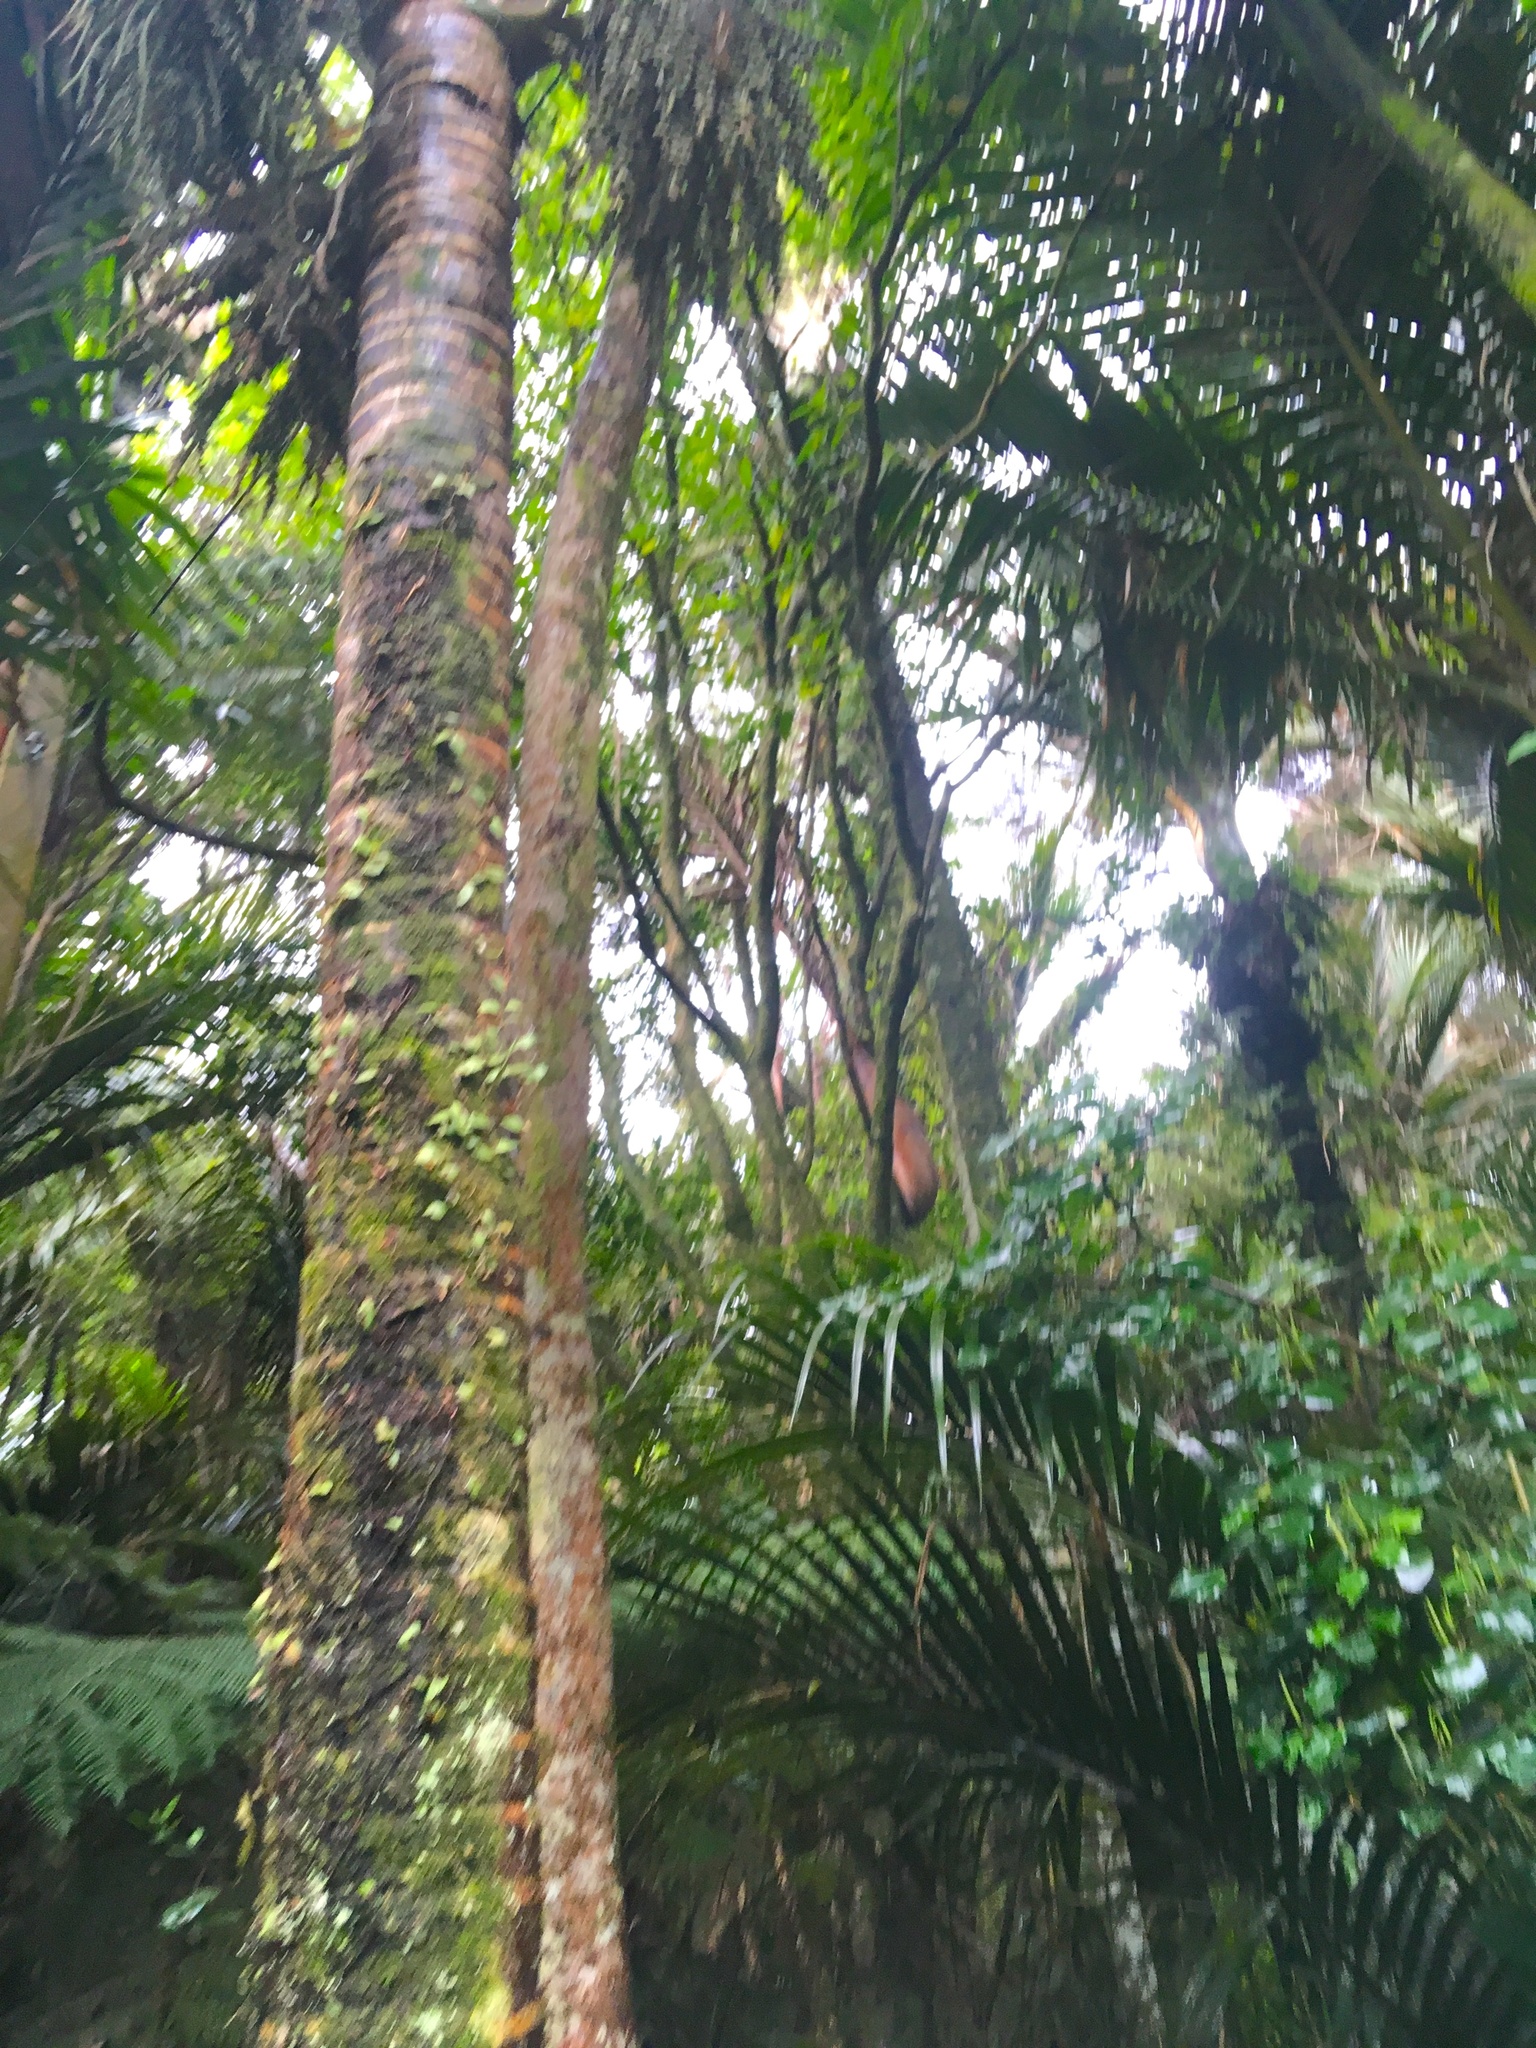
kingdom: Plantae
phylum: Tracheophyta
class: Liliopsida
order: Arecales
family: Arecaceae
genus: Rhopalostylis
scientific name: Rhopalostylis sapida
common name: Feather-duster palm
